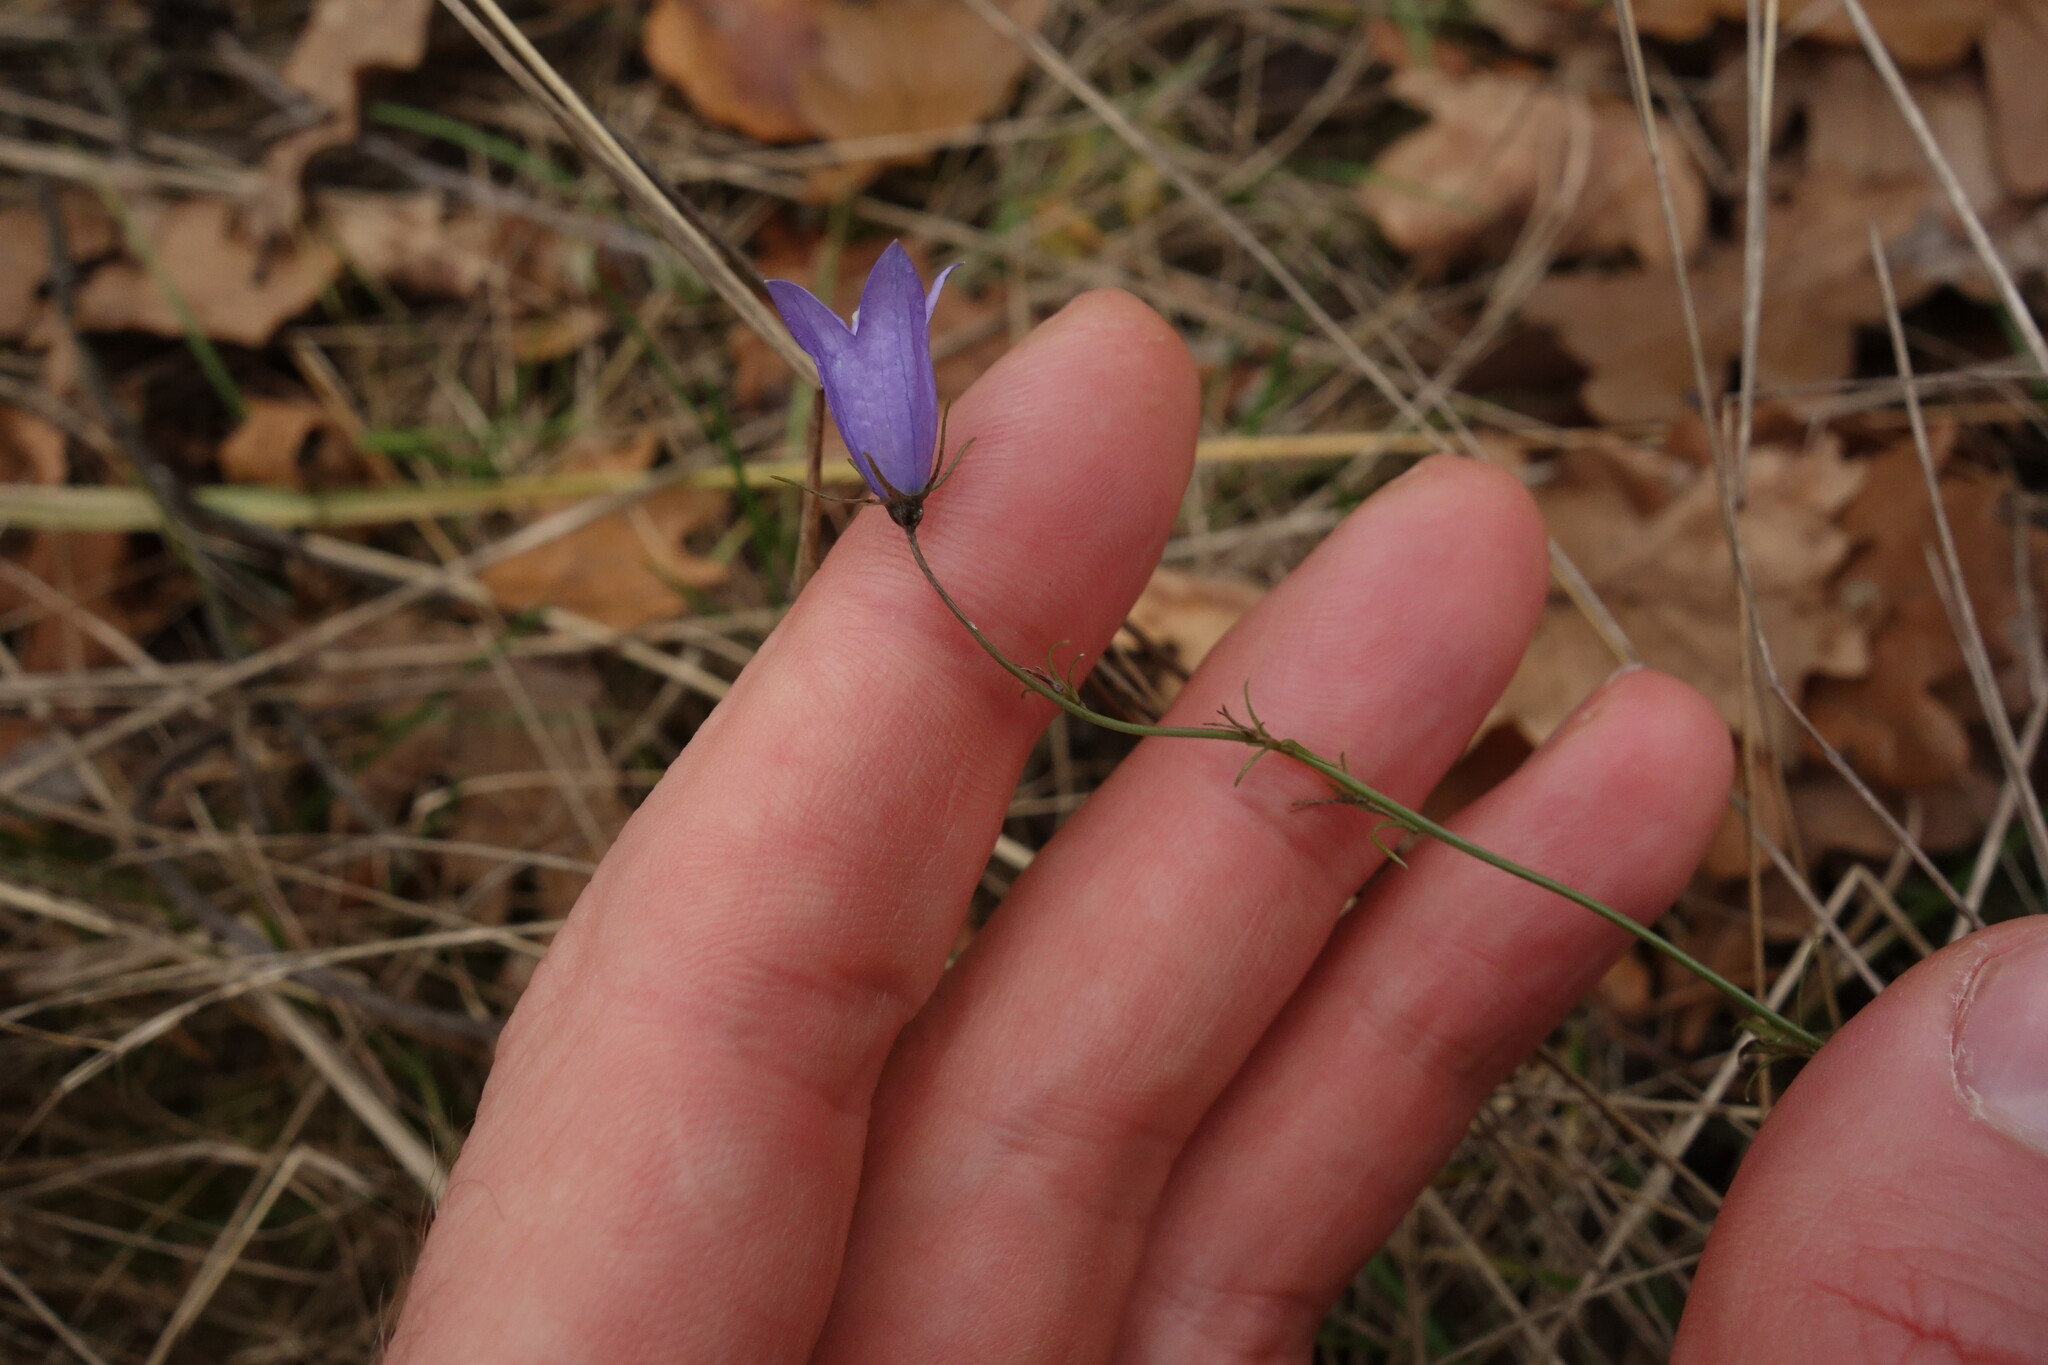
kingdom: Plantae
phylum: Tracheophyta
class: Magnoliopsida
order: Asterales
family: Campanulaceae
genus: Campanula
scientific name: Campanula rotundifolia
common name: Harebell
